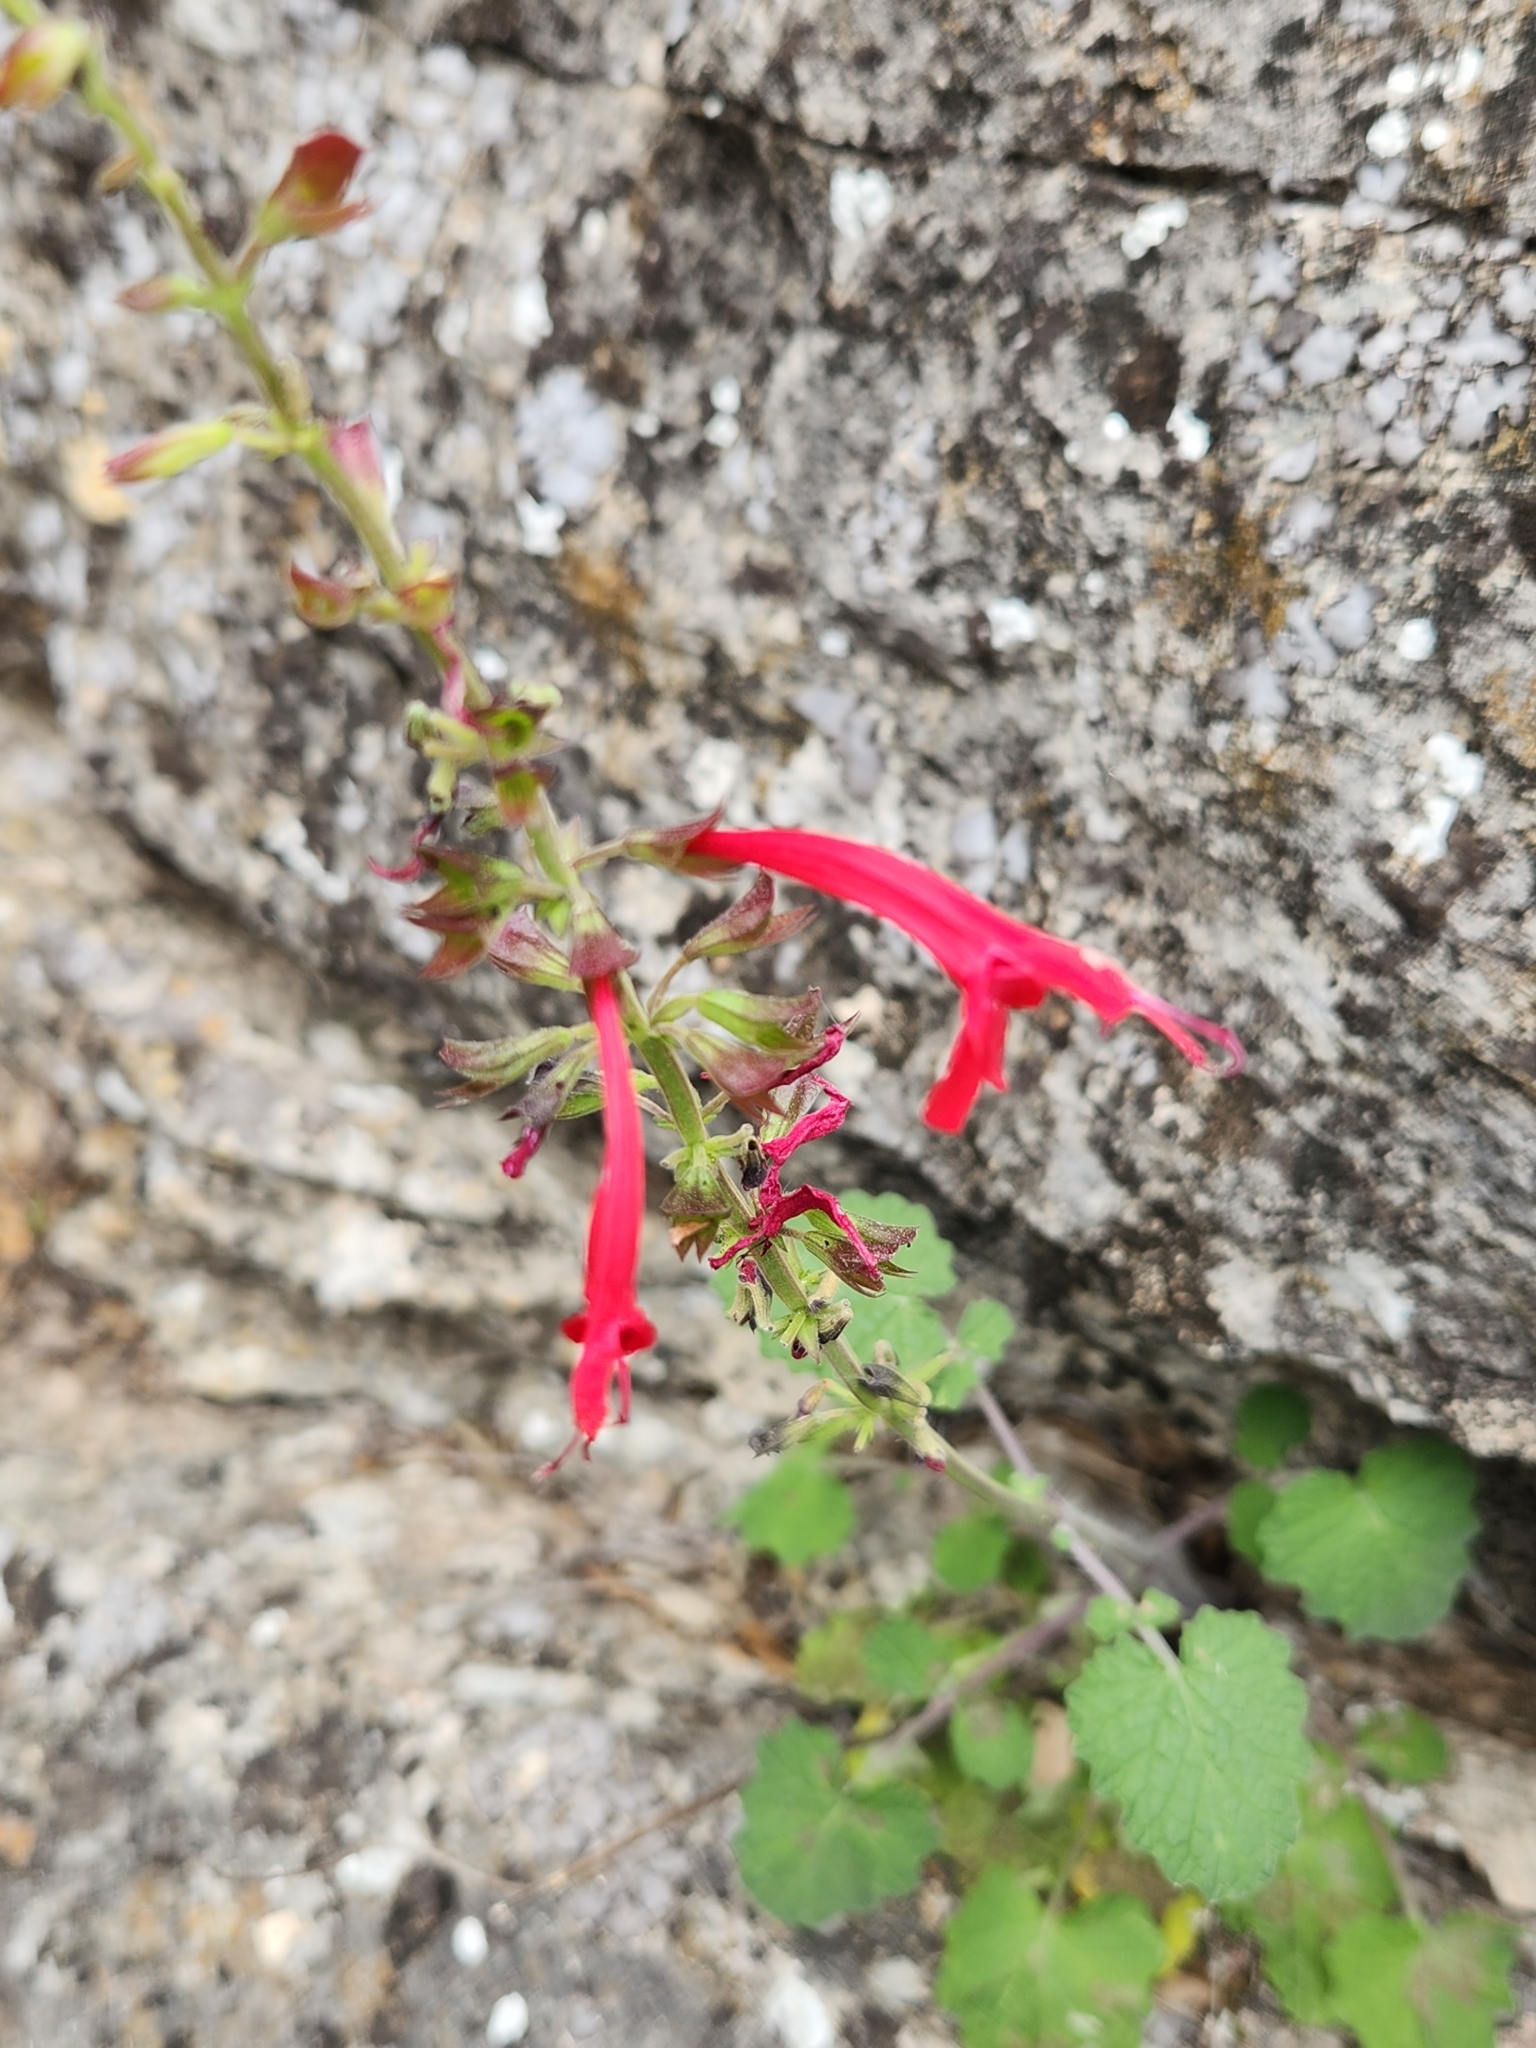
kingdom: Plantae
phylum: Tracheophyta
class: Magnoliopsida
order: Lamiales
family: Lamiaceae
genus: Salvia
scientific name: Salvia roemeriana
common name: Cedar sage
